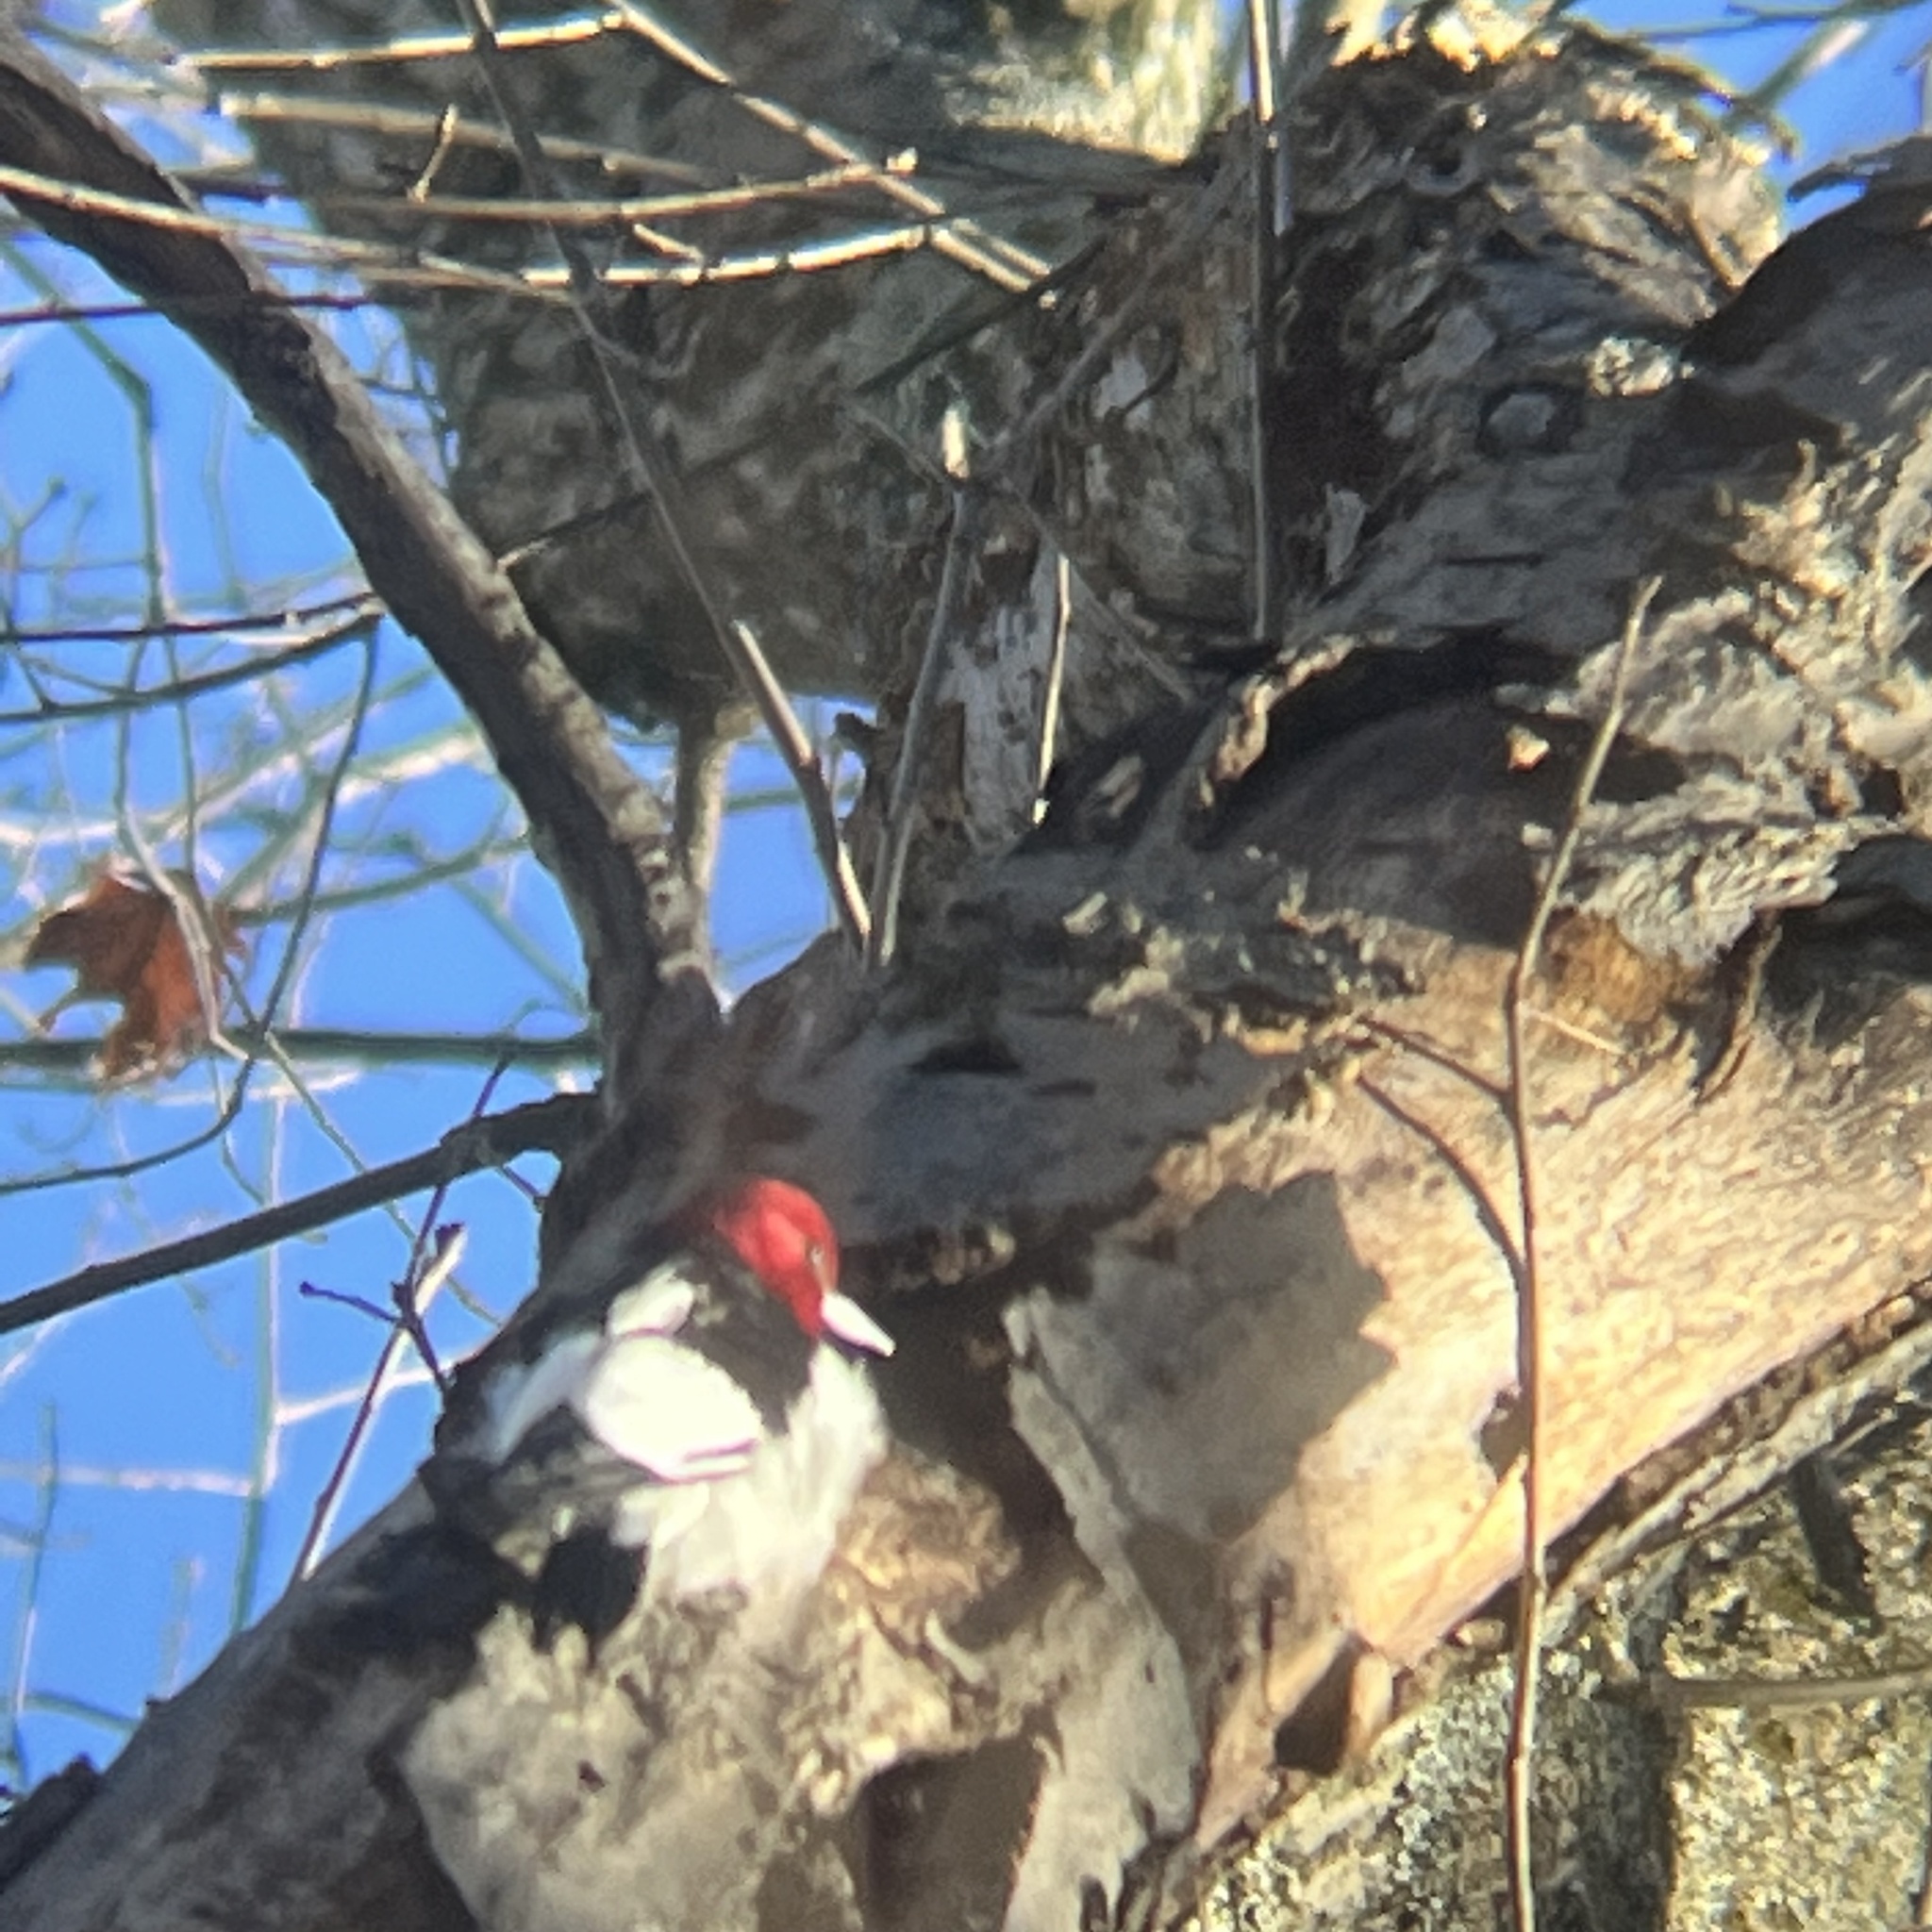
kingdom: Animalia
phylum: Chordata
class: Aves
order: Piciformes
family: Picidae
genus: Melanerpes
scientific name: Melanerpes erythrocephalus
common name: Red-headed woodpecker
